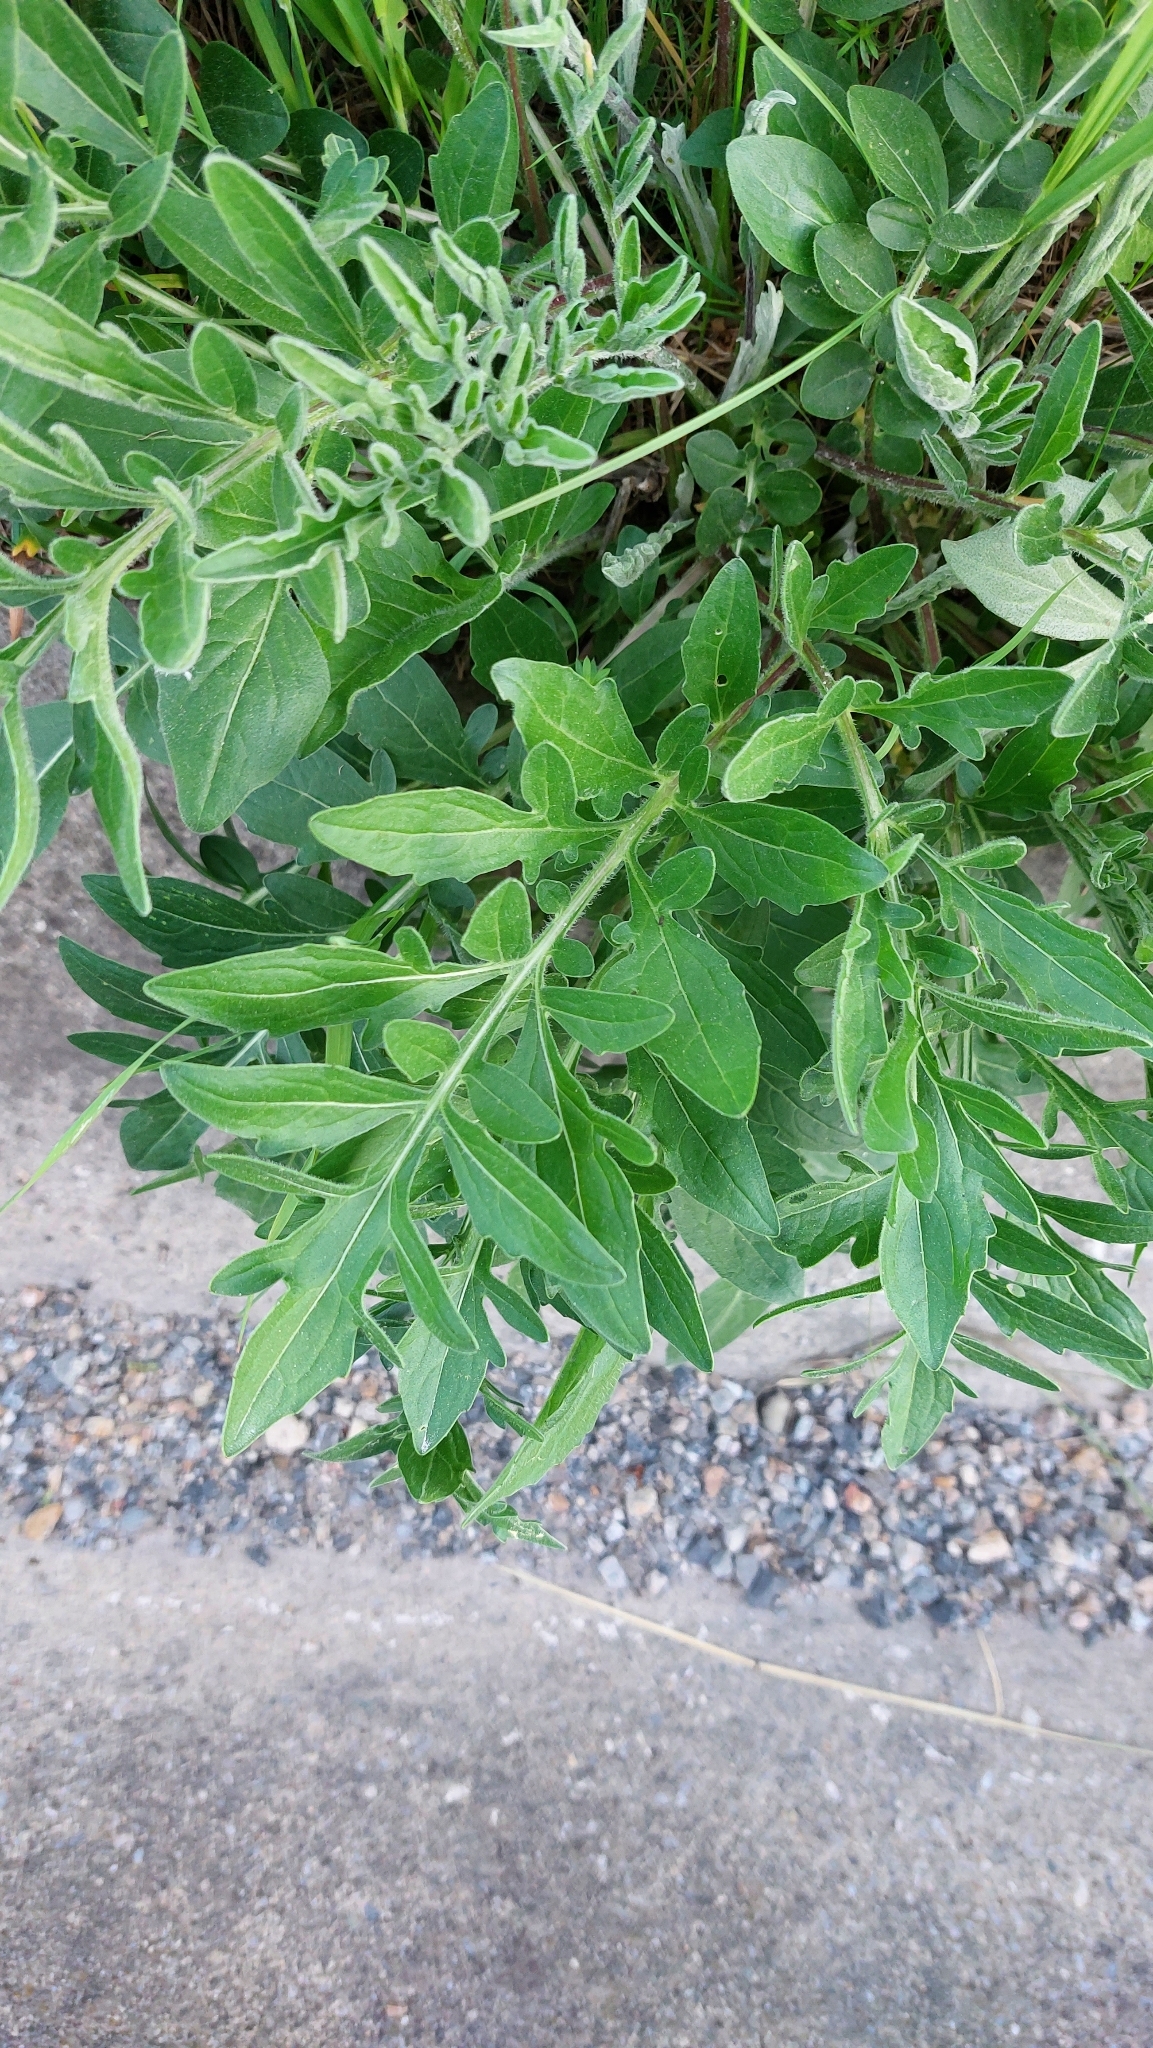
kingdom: Plantae
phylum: Tracheophyta
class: Magnoliopsida
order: Asterales
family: Asteraceae
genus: Centaurea
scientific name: Centaurea scabiosa
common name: Greater knapweed
